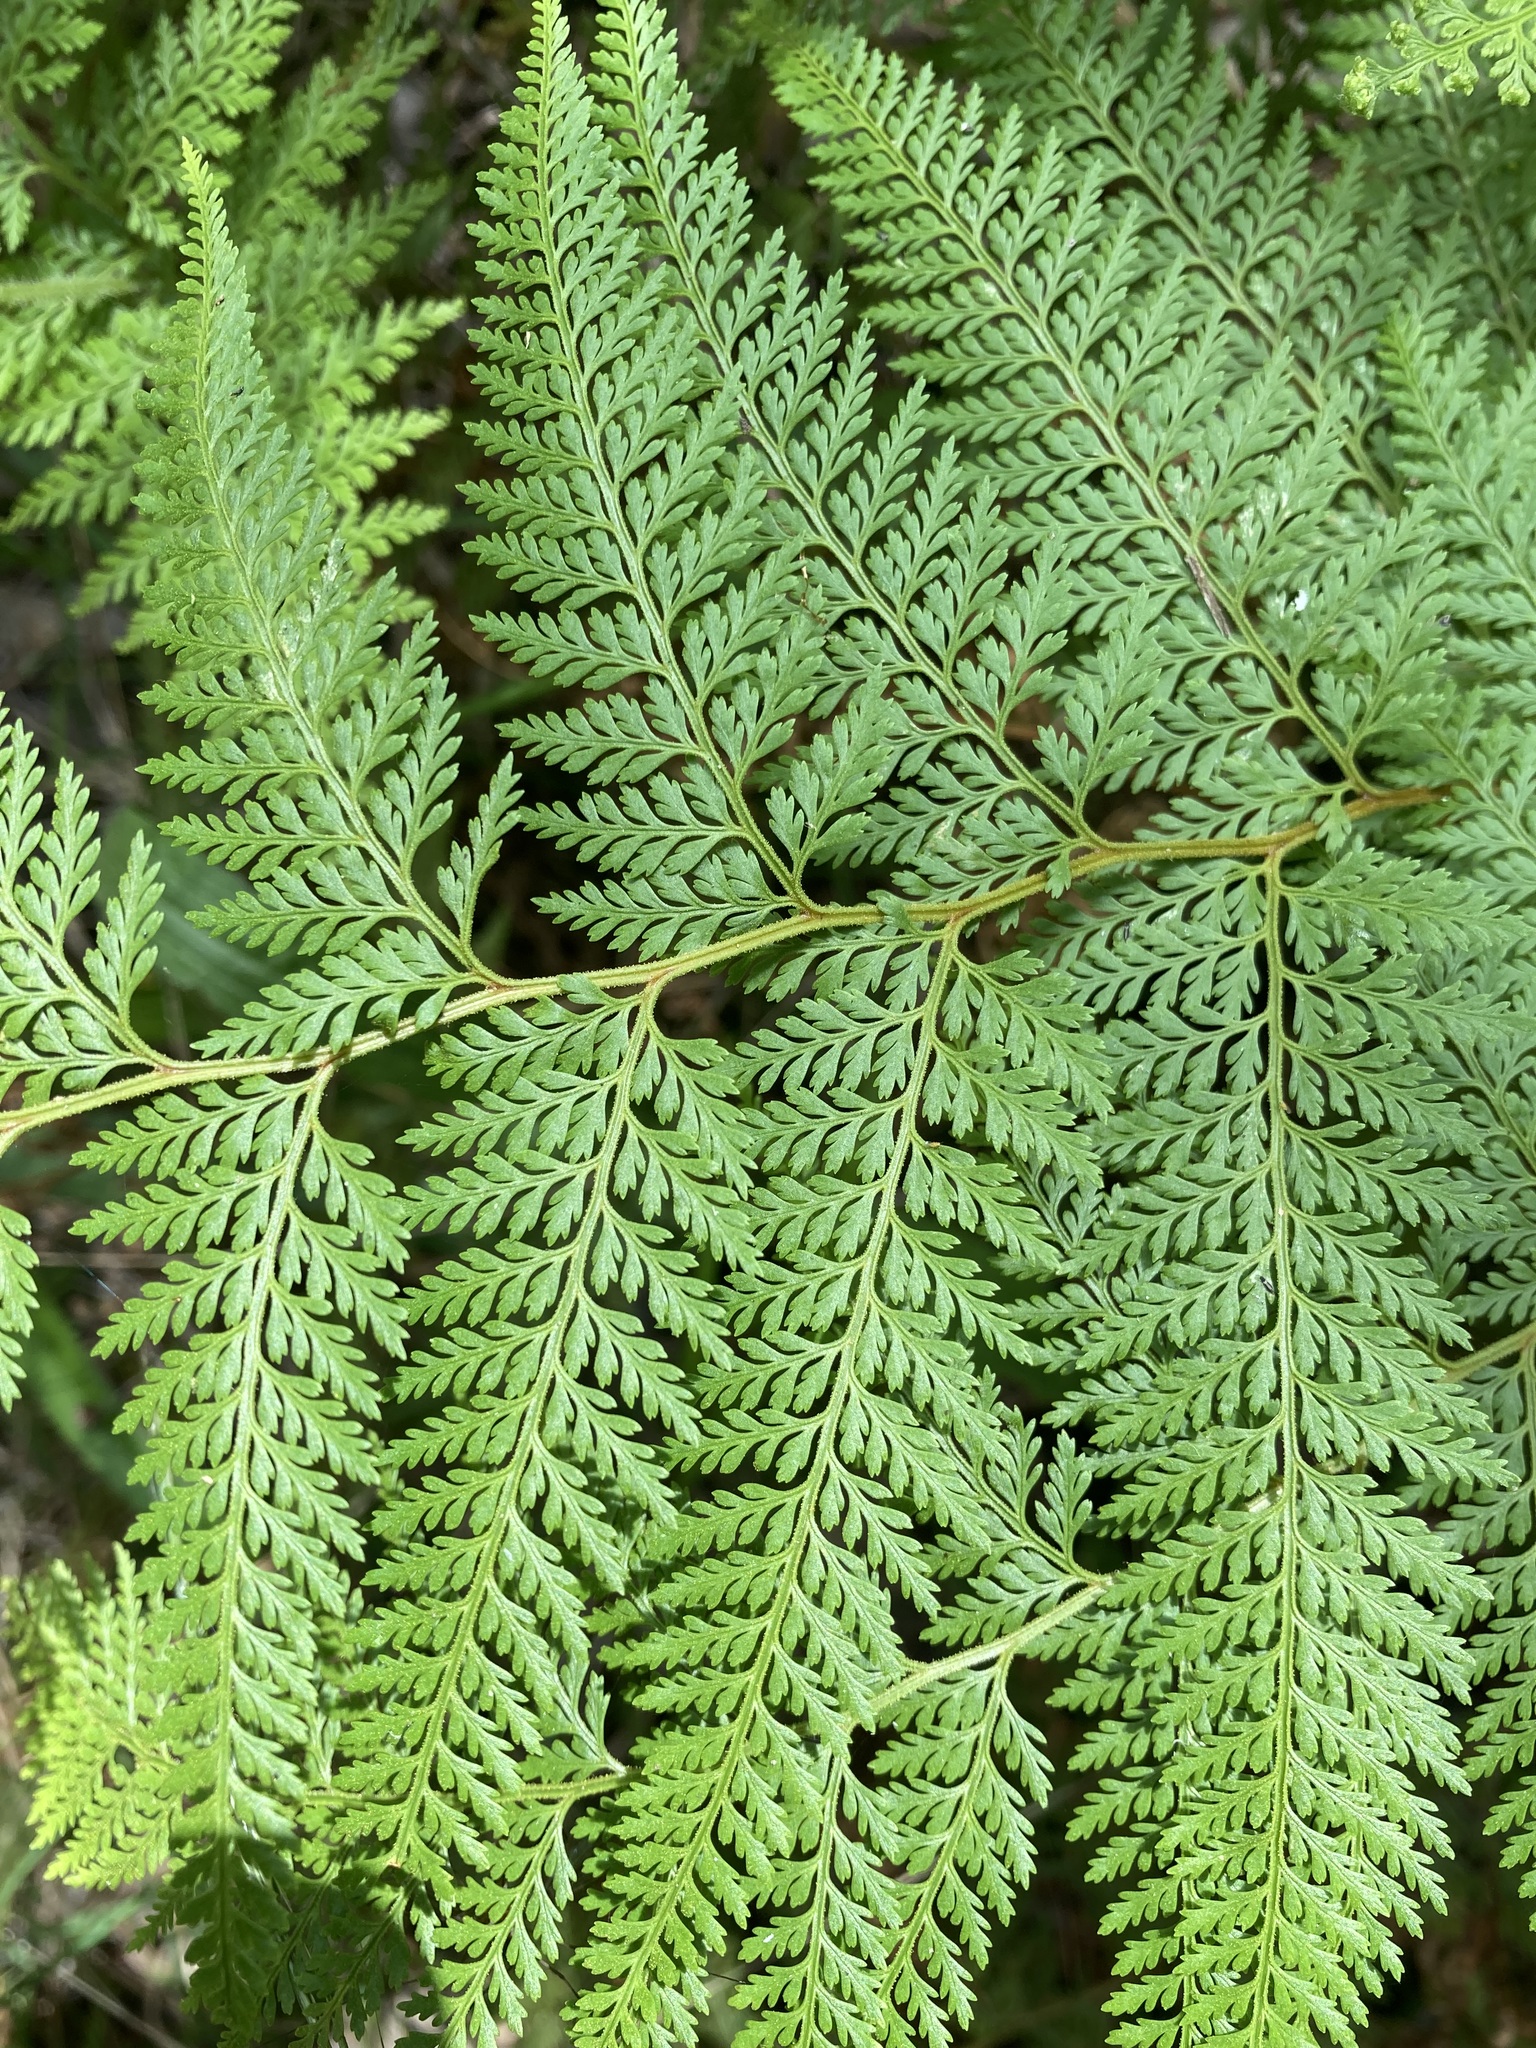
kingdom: Plantae
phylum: Tracheophyta
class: Polypodiopsida
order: Polypodiales
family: Dennstaedtiaceae
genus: Paesia
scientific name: Paesia scaberula
